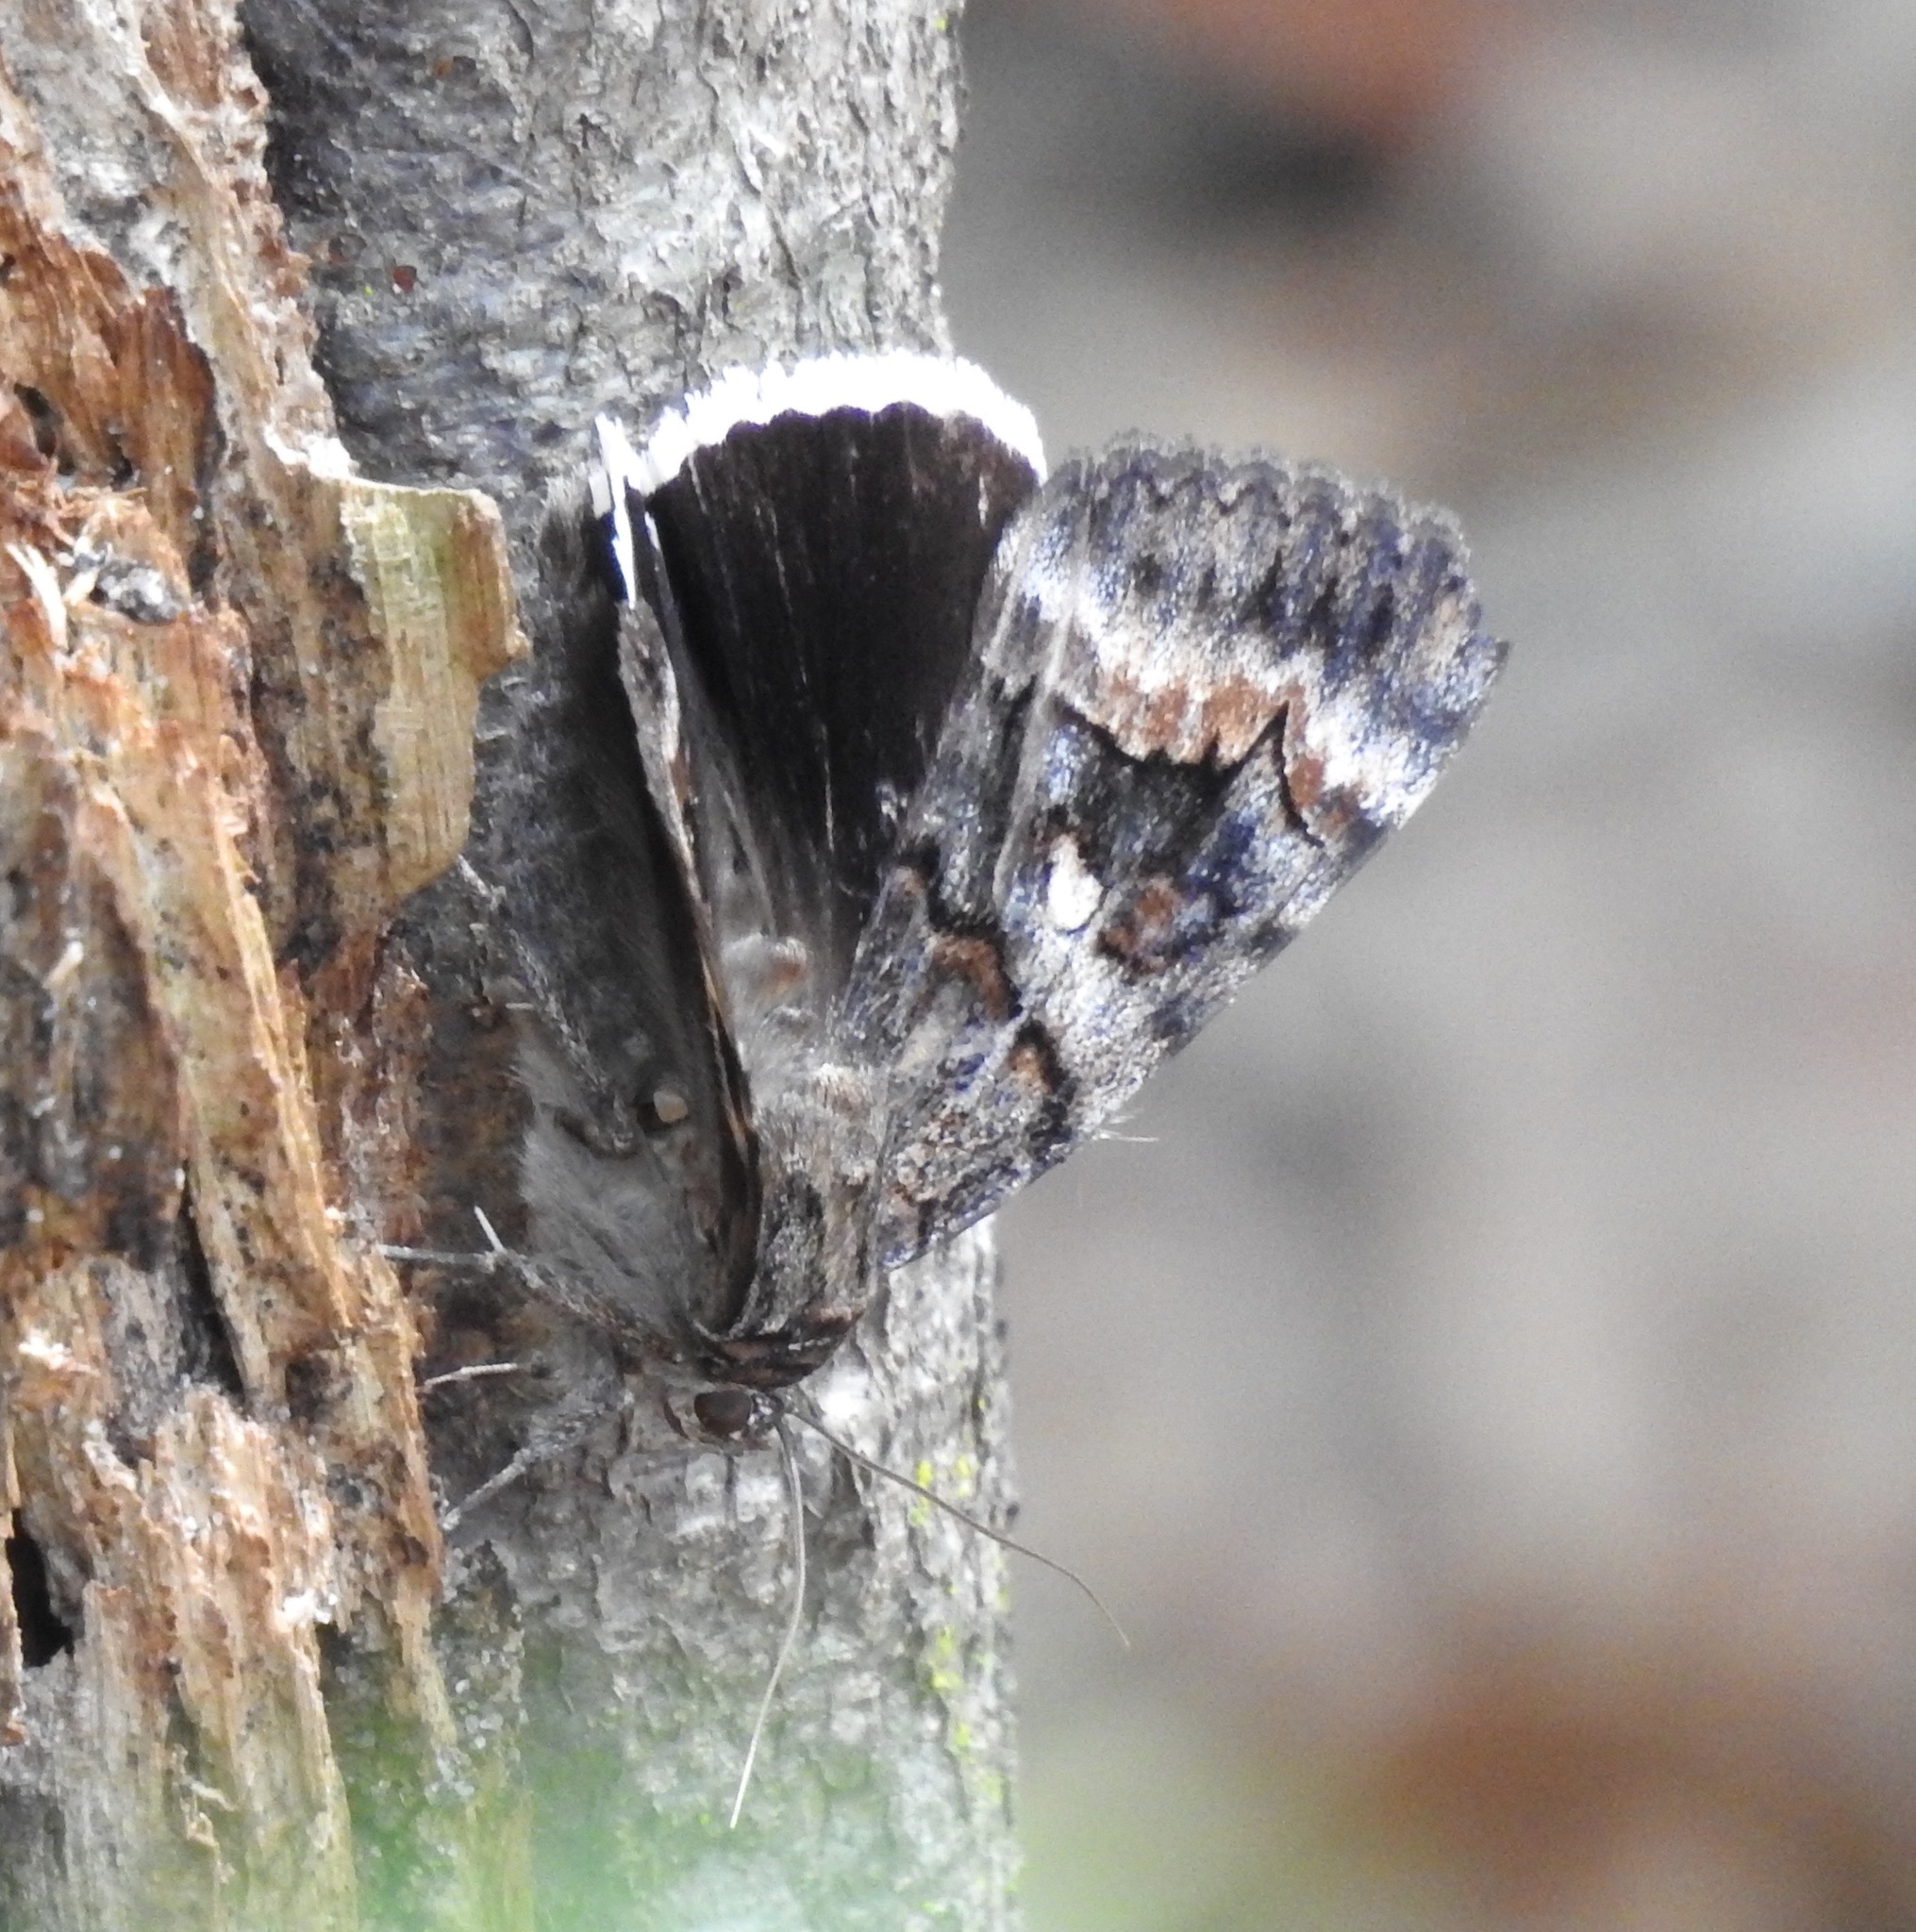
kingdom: Animalia
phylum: Arthropoda
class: Insecta
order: Lepidoptera
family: Erebidae
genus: Catocala
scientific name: Catocala epione
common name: Epione underwing
